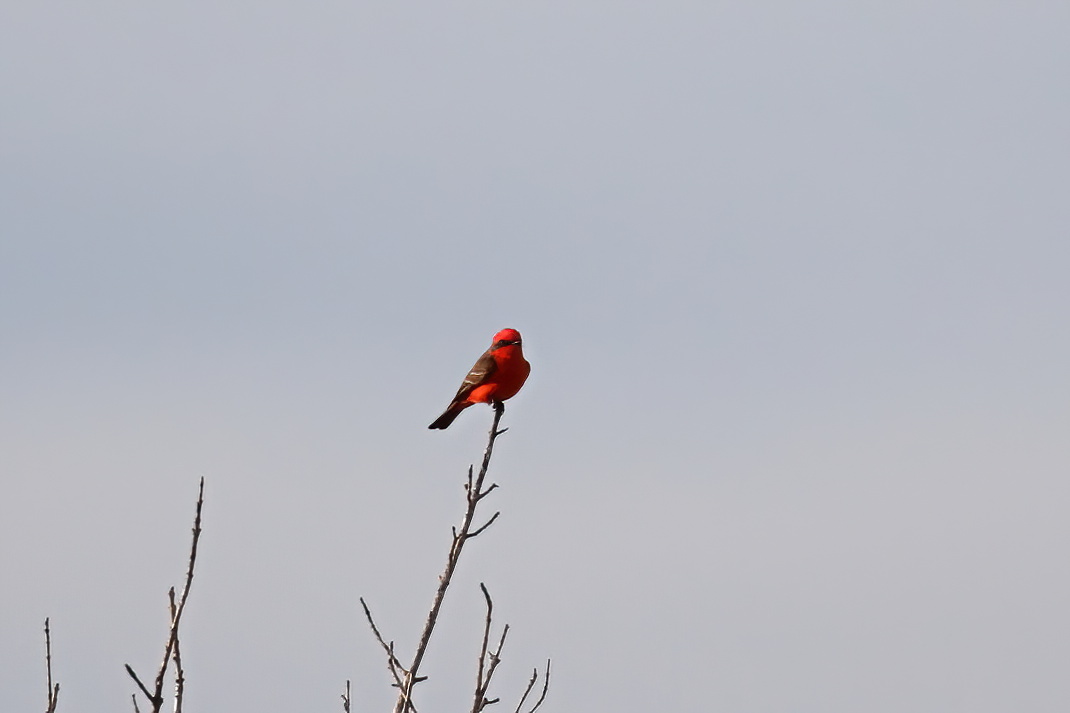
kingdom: Animalia
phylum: Chordata
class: Aves
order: Passeriformes
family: Tyrannidae
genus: Pyrocephalus
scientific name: Pyrocephalus rubinus
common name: Vermilion flycatcher
